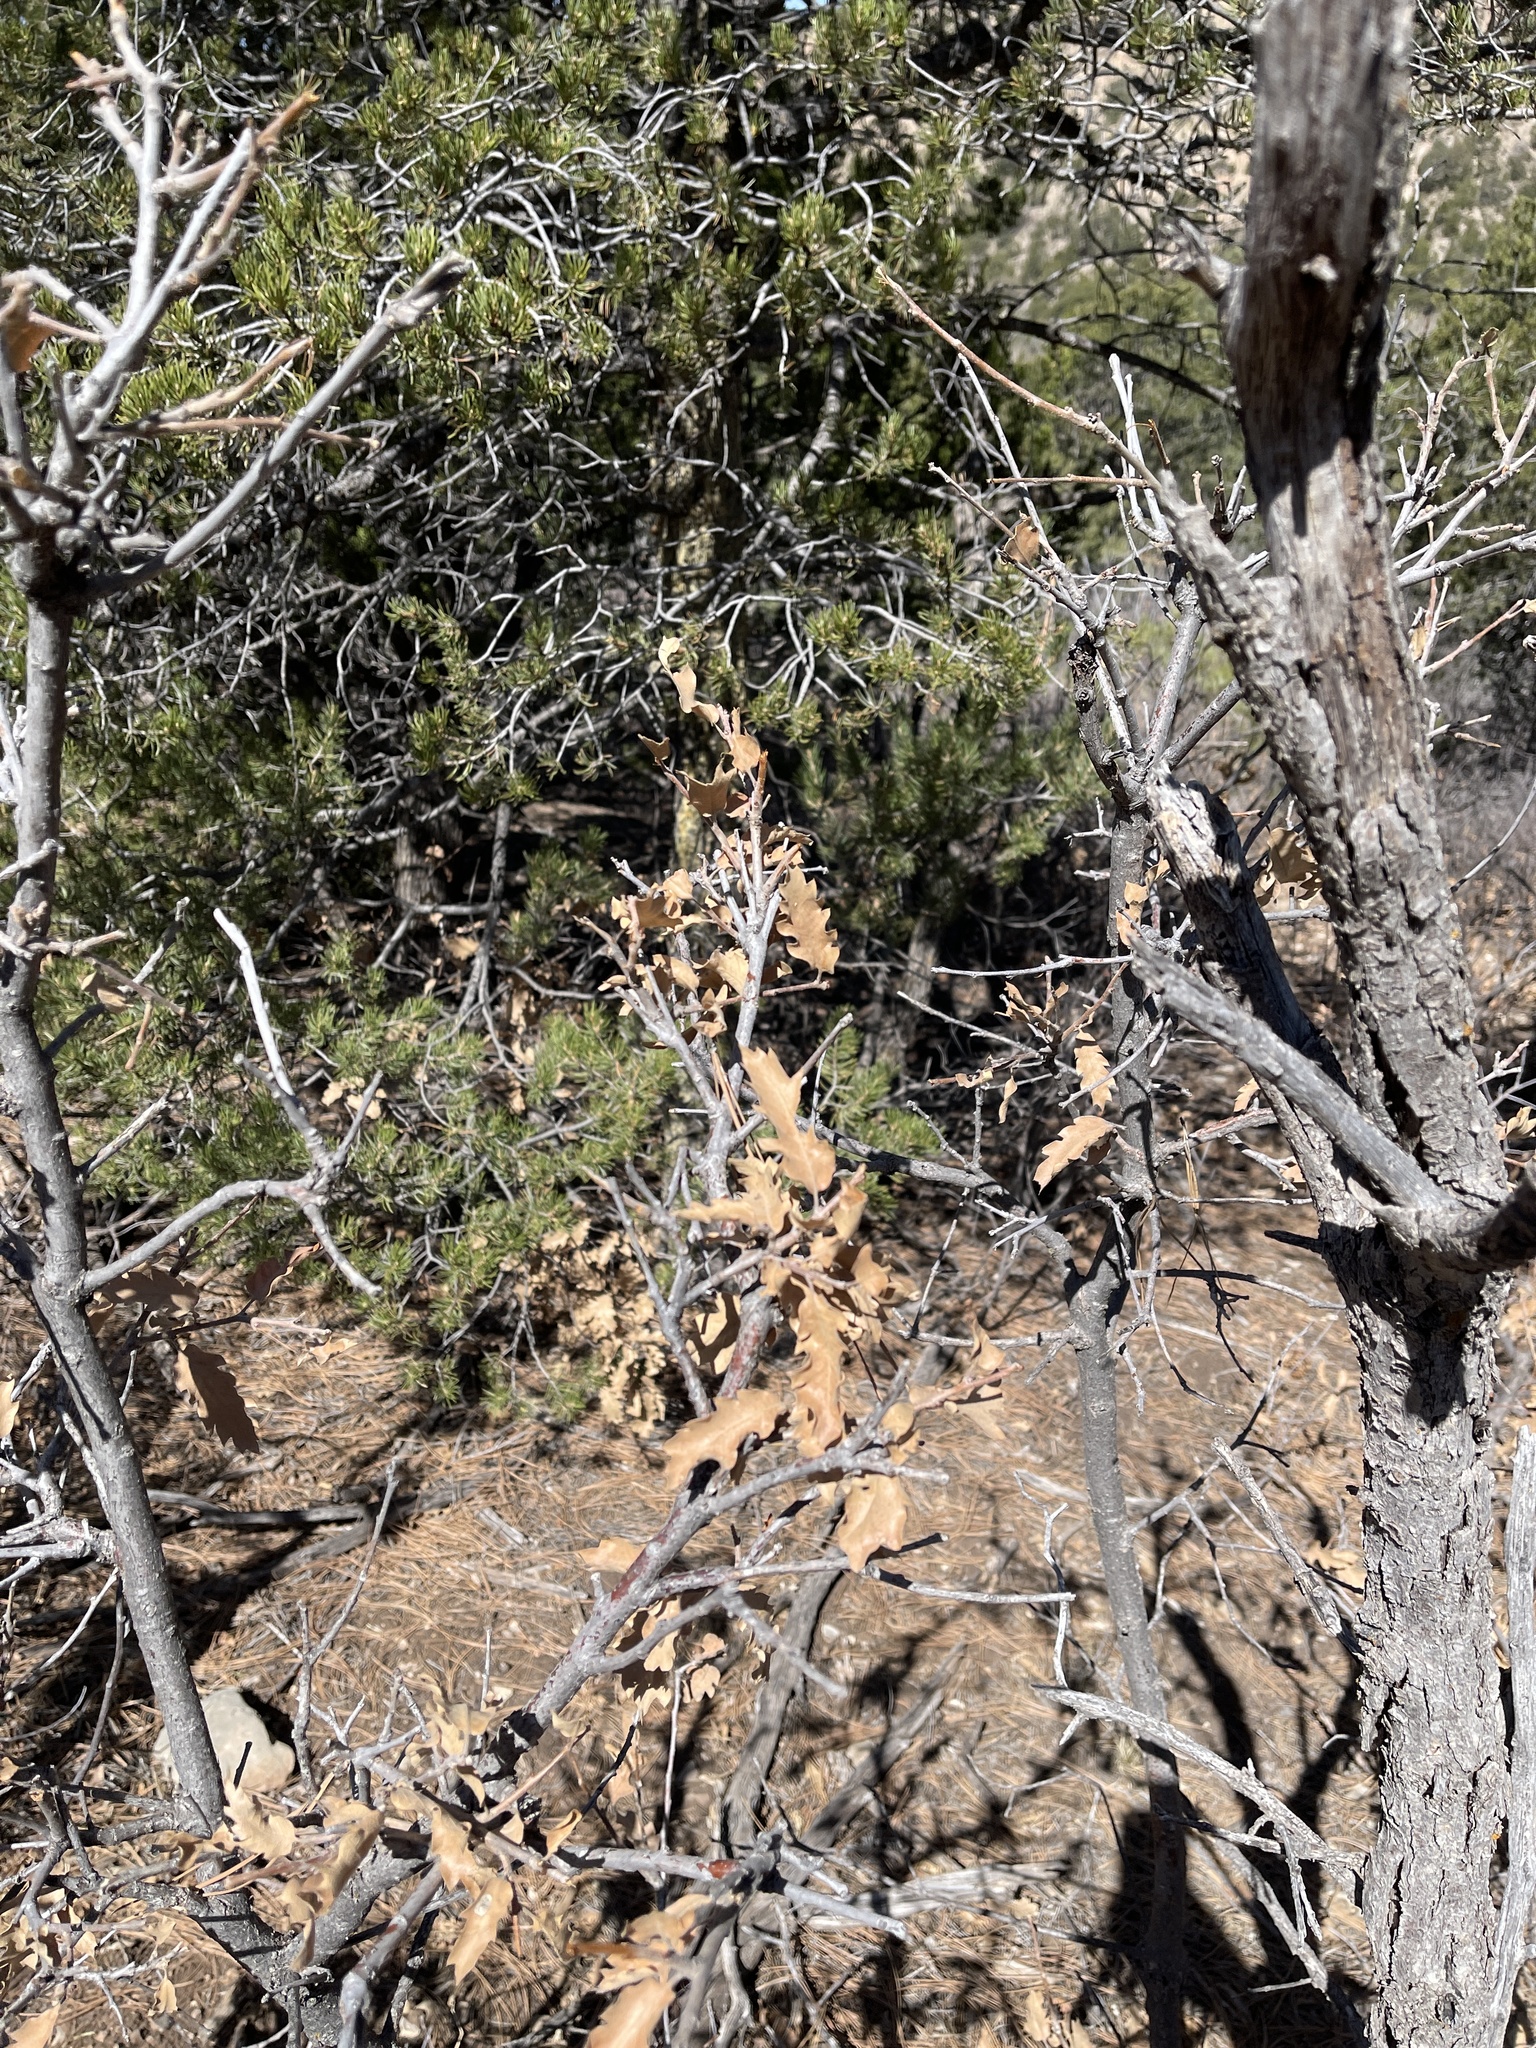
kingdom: Plantae
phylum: Tracheophyta
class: Magnoliopsida
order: Fagales
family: Fagaceae
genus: Quercus
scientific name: Quercus gambelii
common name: Gambel oak
